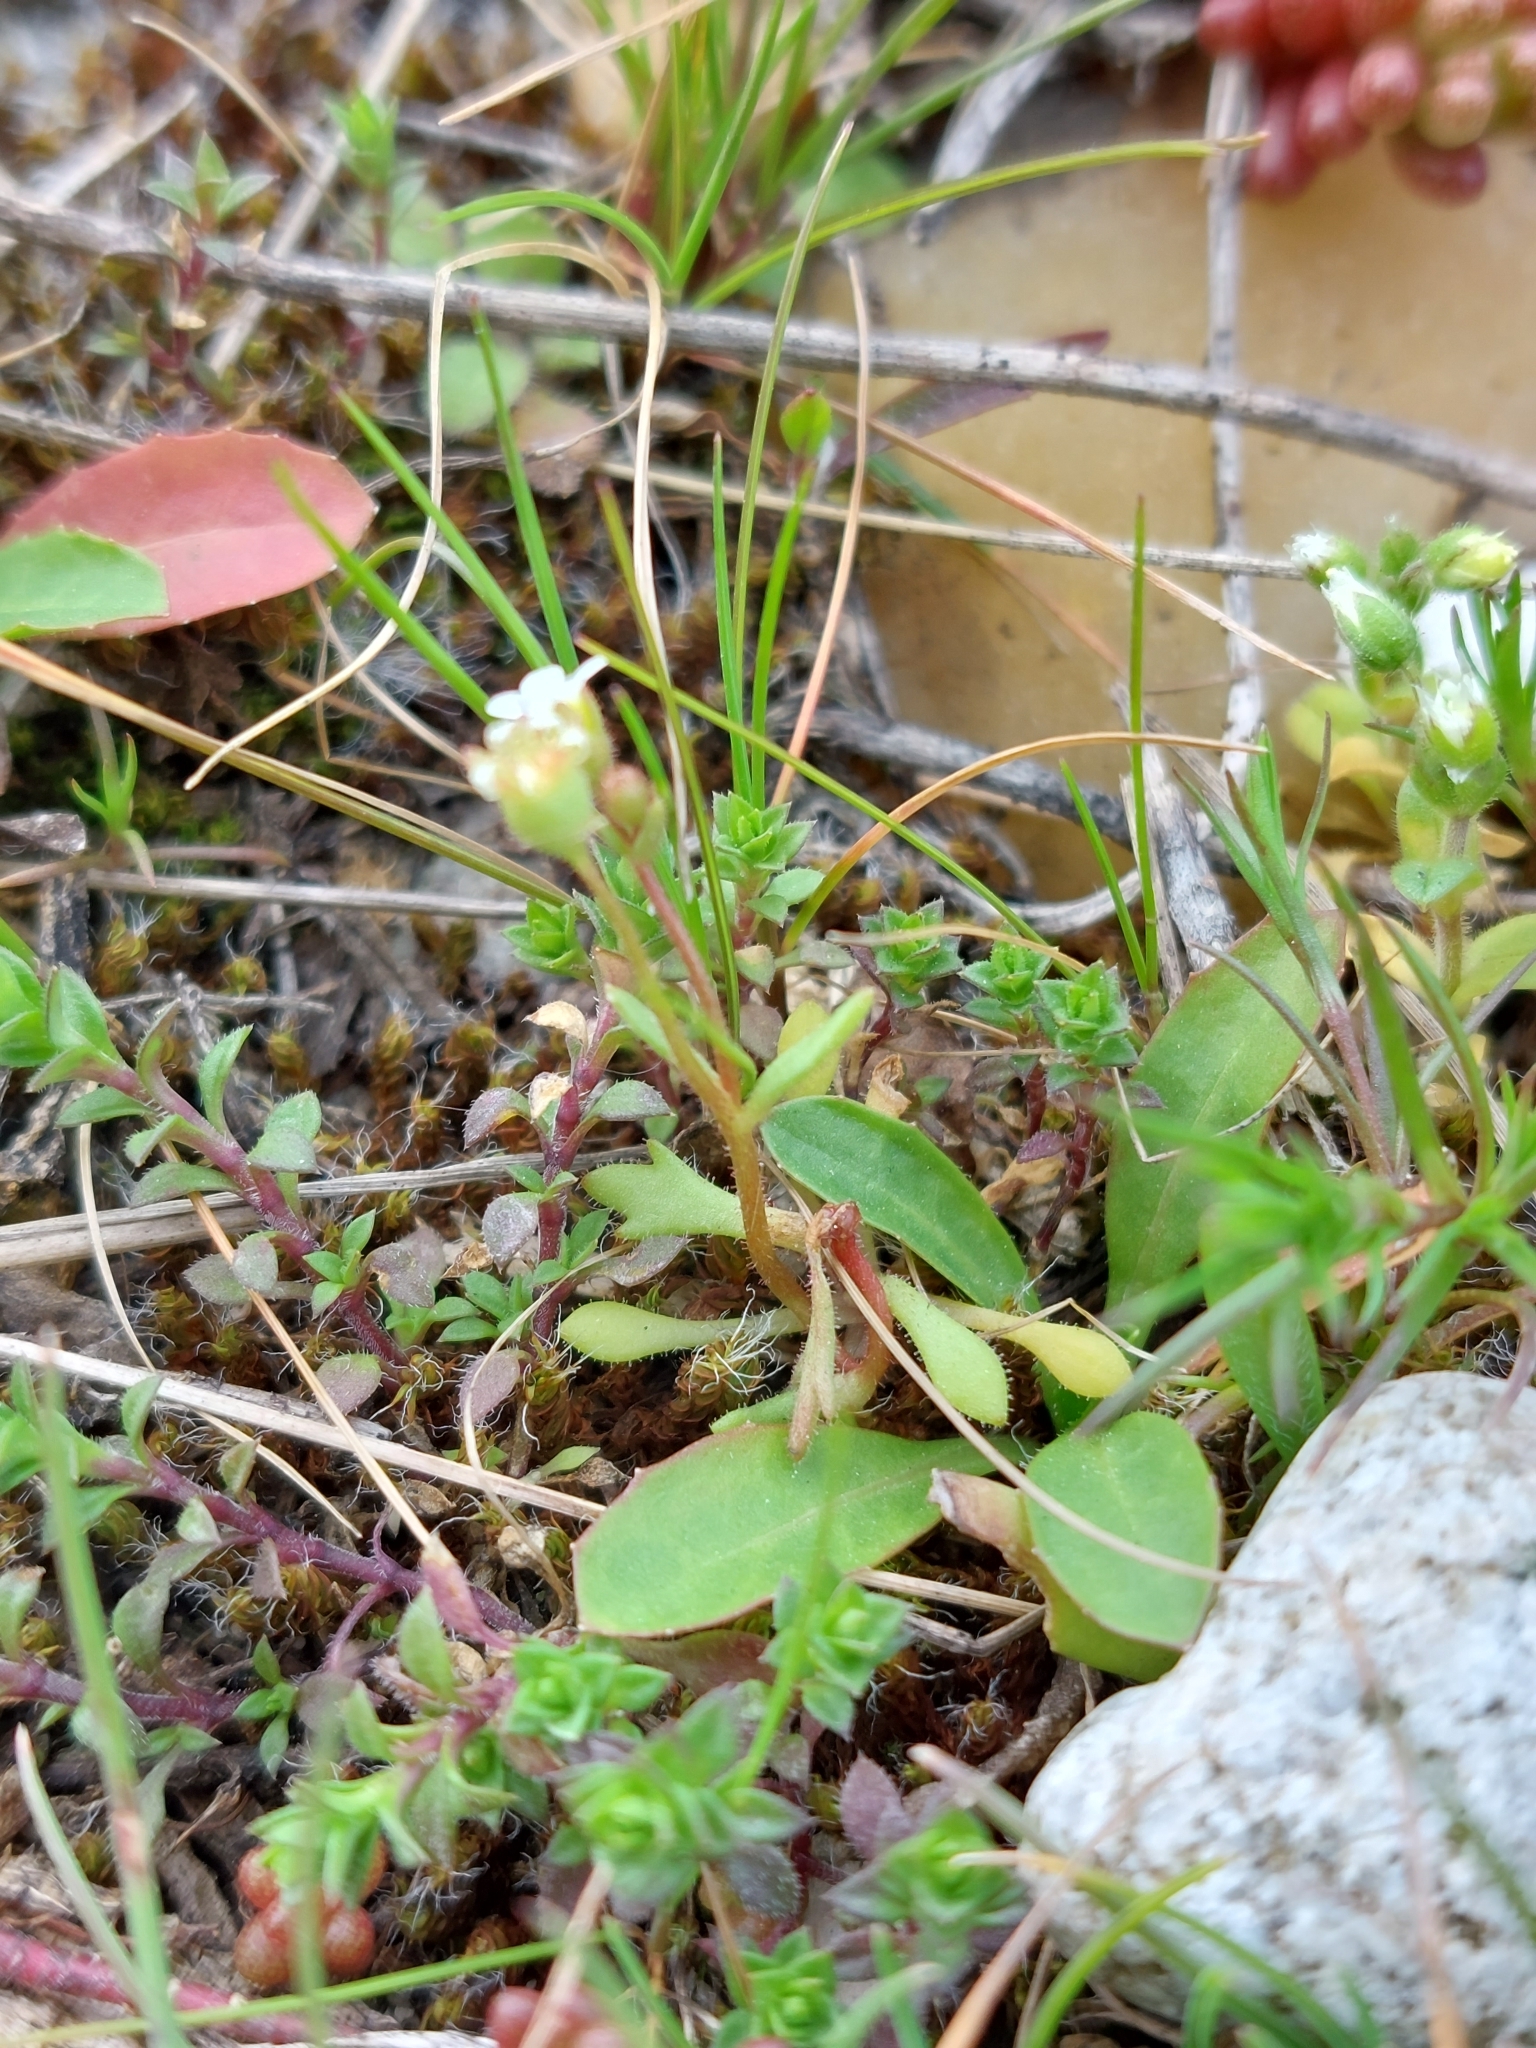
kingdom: Plantae
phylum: Tracheophyta
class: Magnoliopsida
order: Saxifragales
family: Saxifragaceae
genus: Saxifraga
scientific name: Saxifraga tridactylites
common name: Rue-leaved saxifrage
